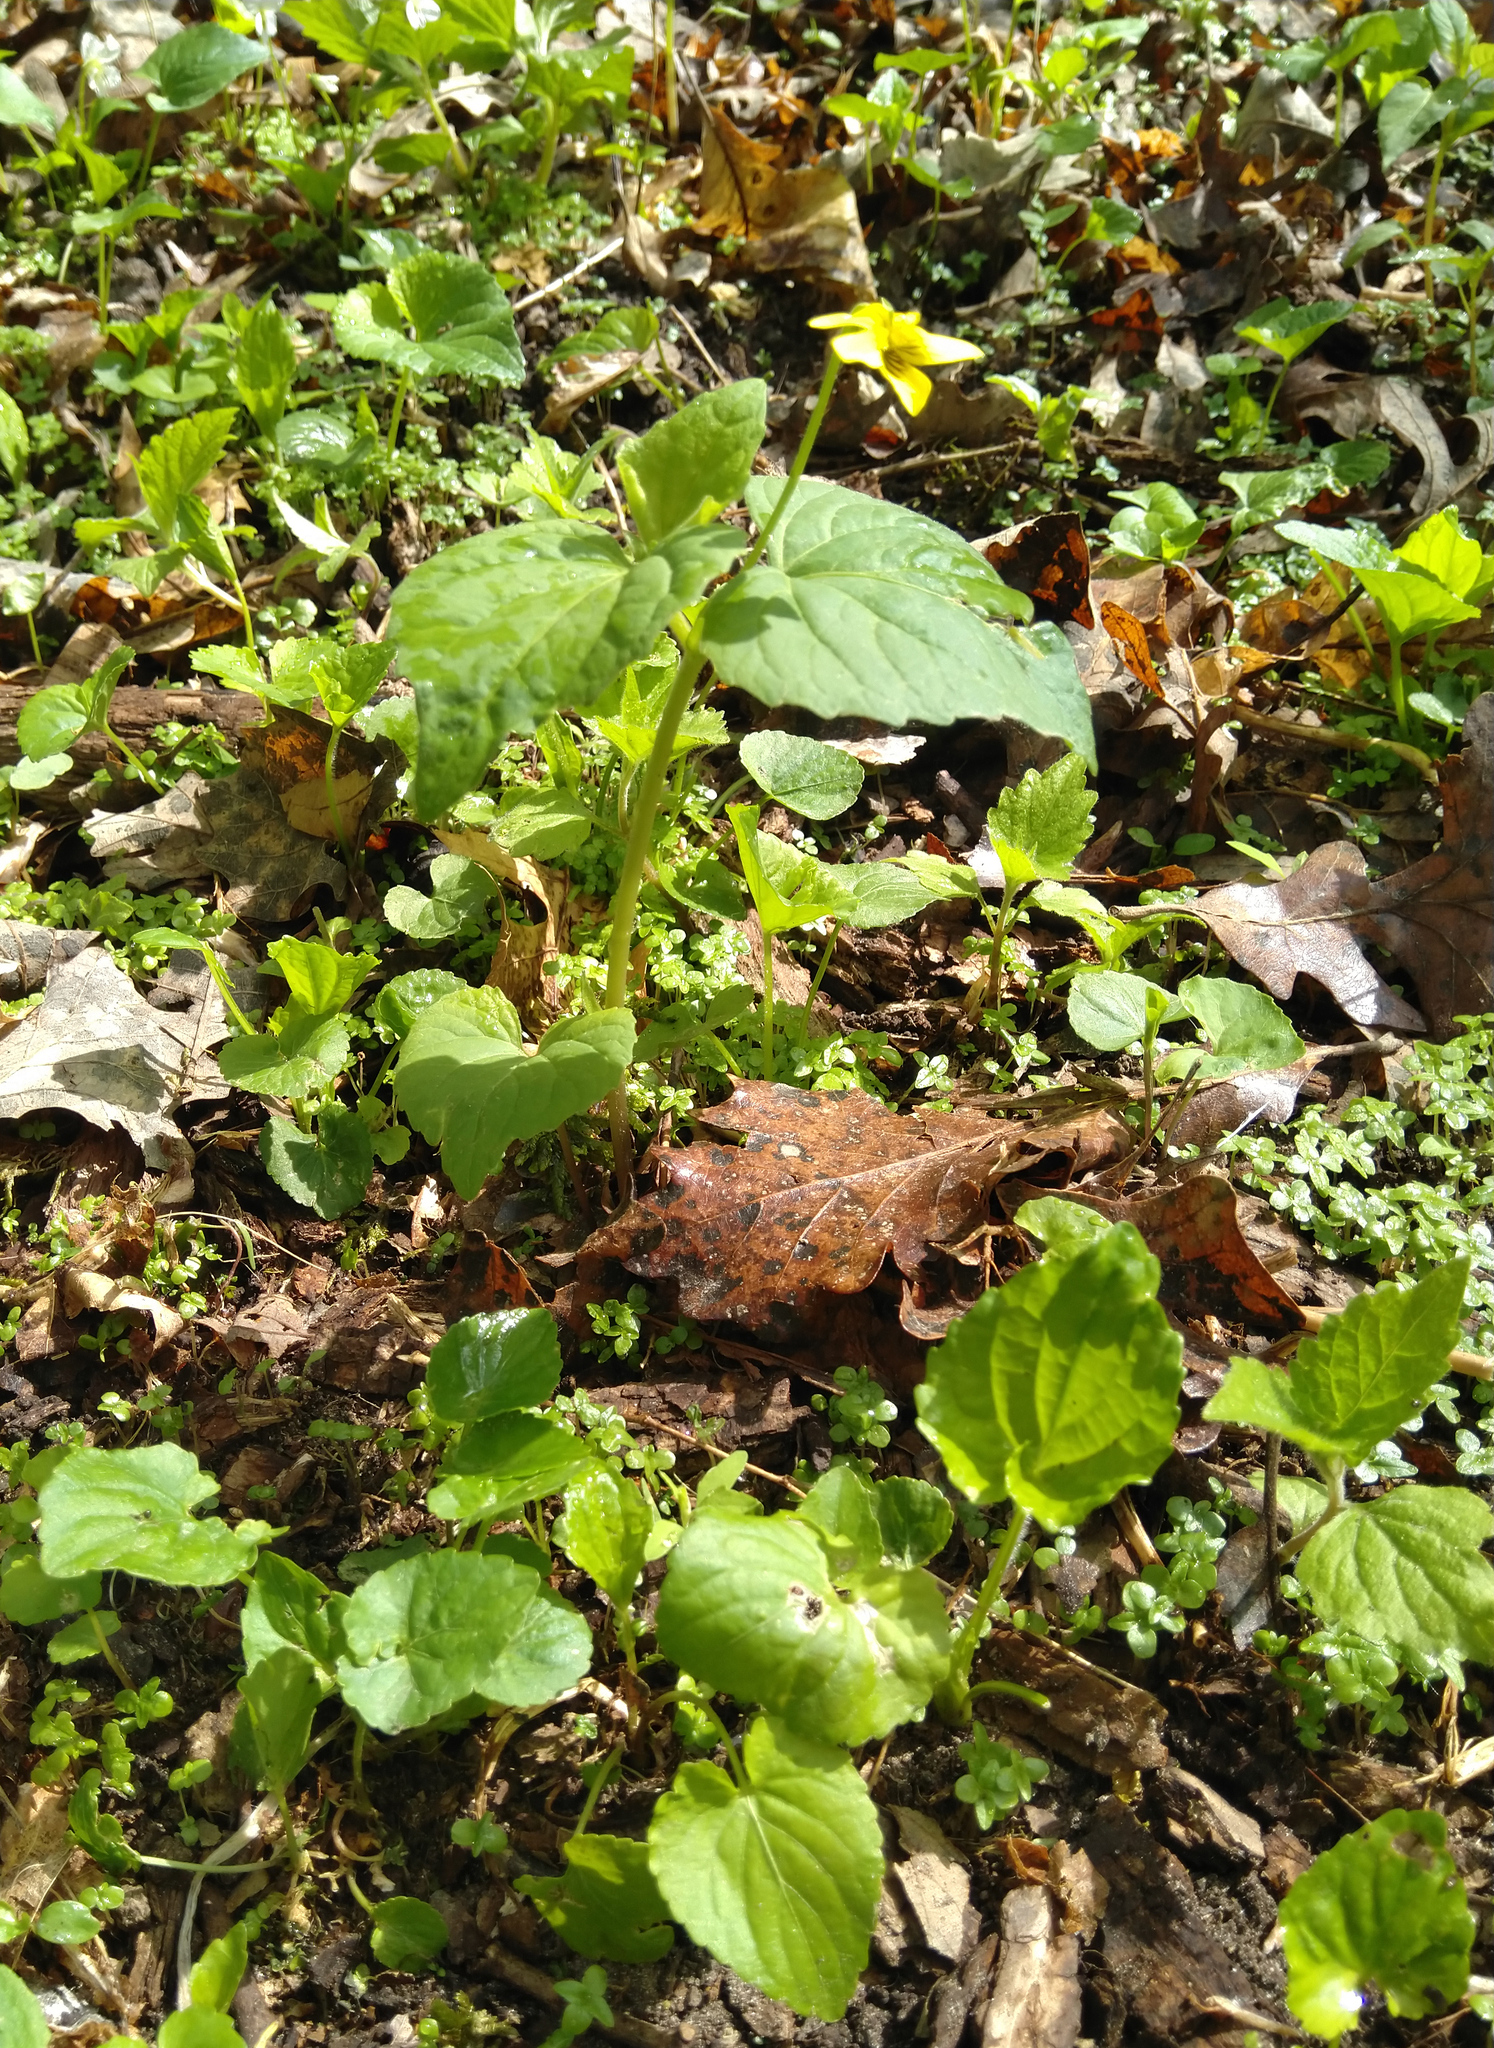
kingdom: Plantae
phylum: Tracheophyta
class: Magnoliopsida
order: Malpighiales
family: Violaceae
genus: Viola
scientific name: Viola eriocarpa
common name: Smooth yellow violet
